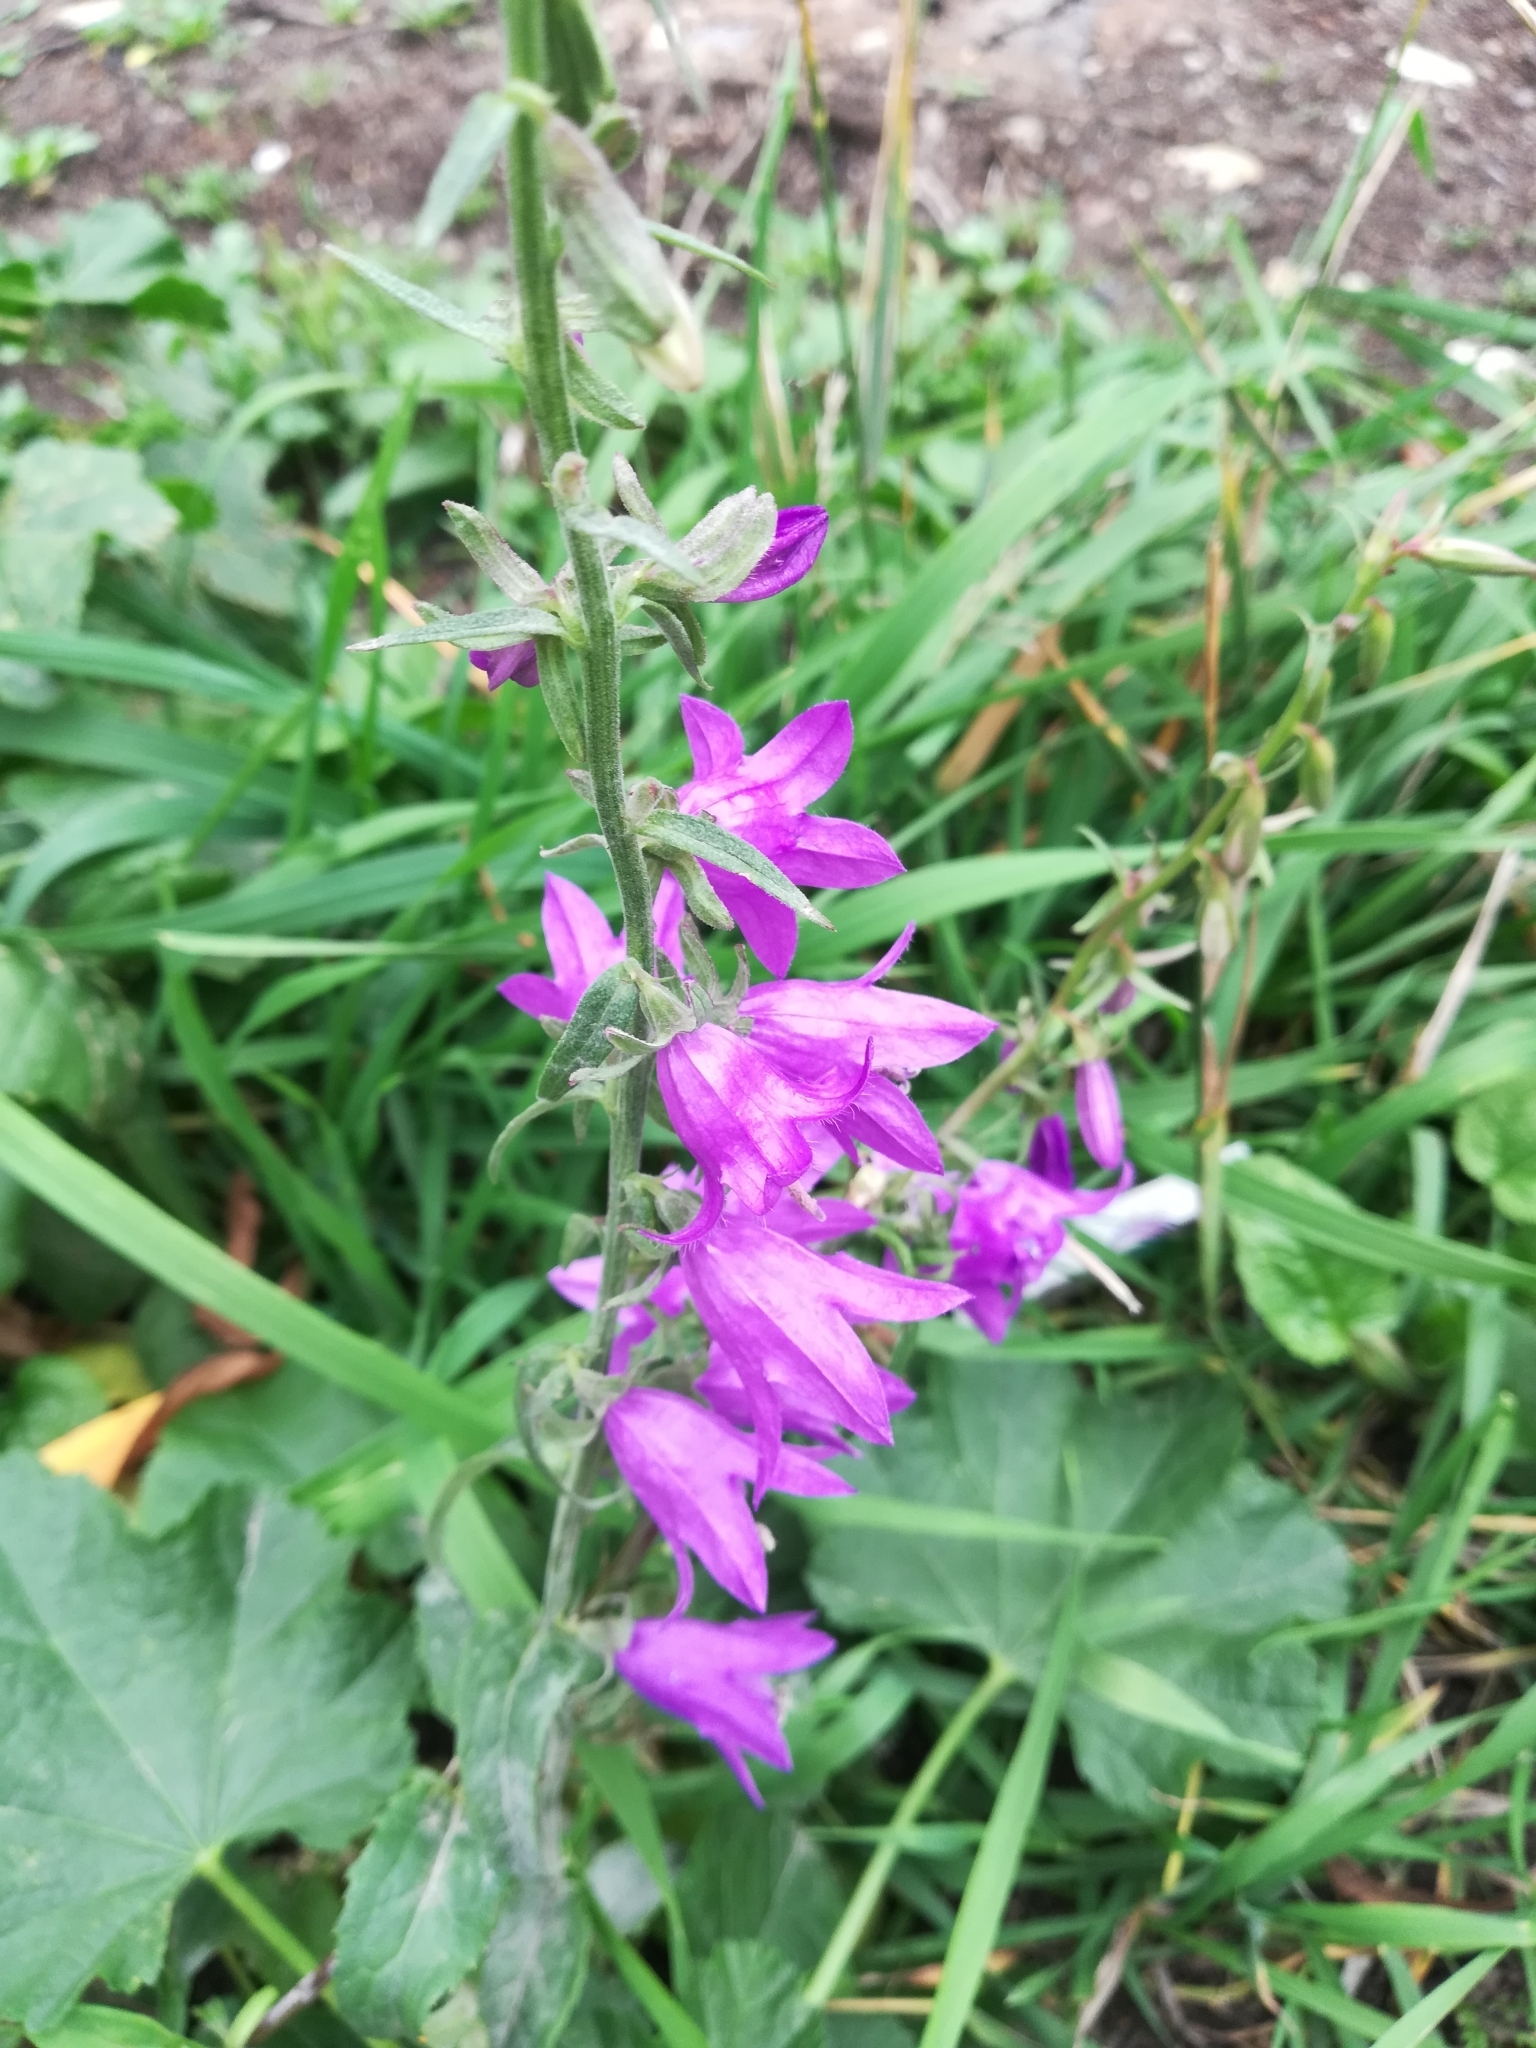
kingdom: Plantae
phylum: Tracheophyta
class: Magnoliopsida
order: Asterales
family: Campanulaceae
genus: Campanula
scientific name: Campanula rapunculoides
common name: Creeping bellflower
